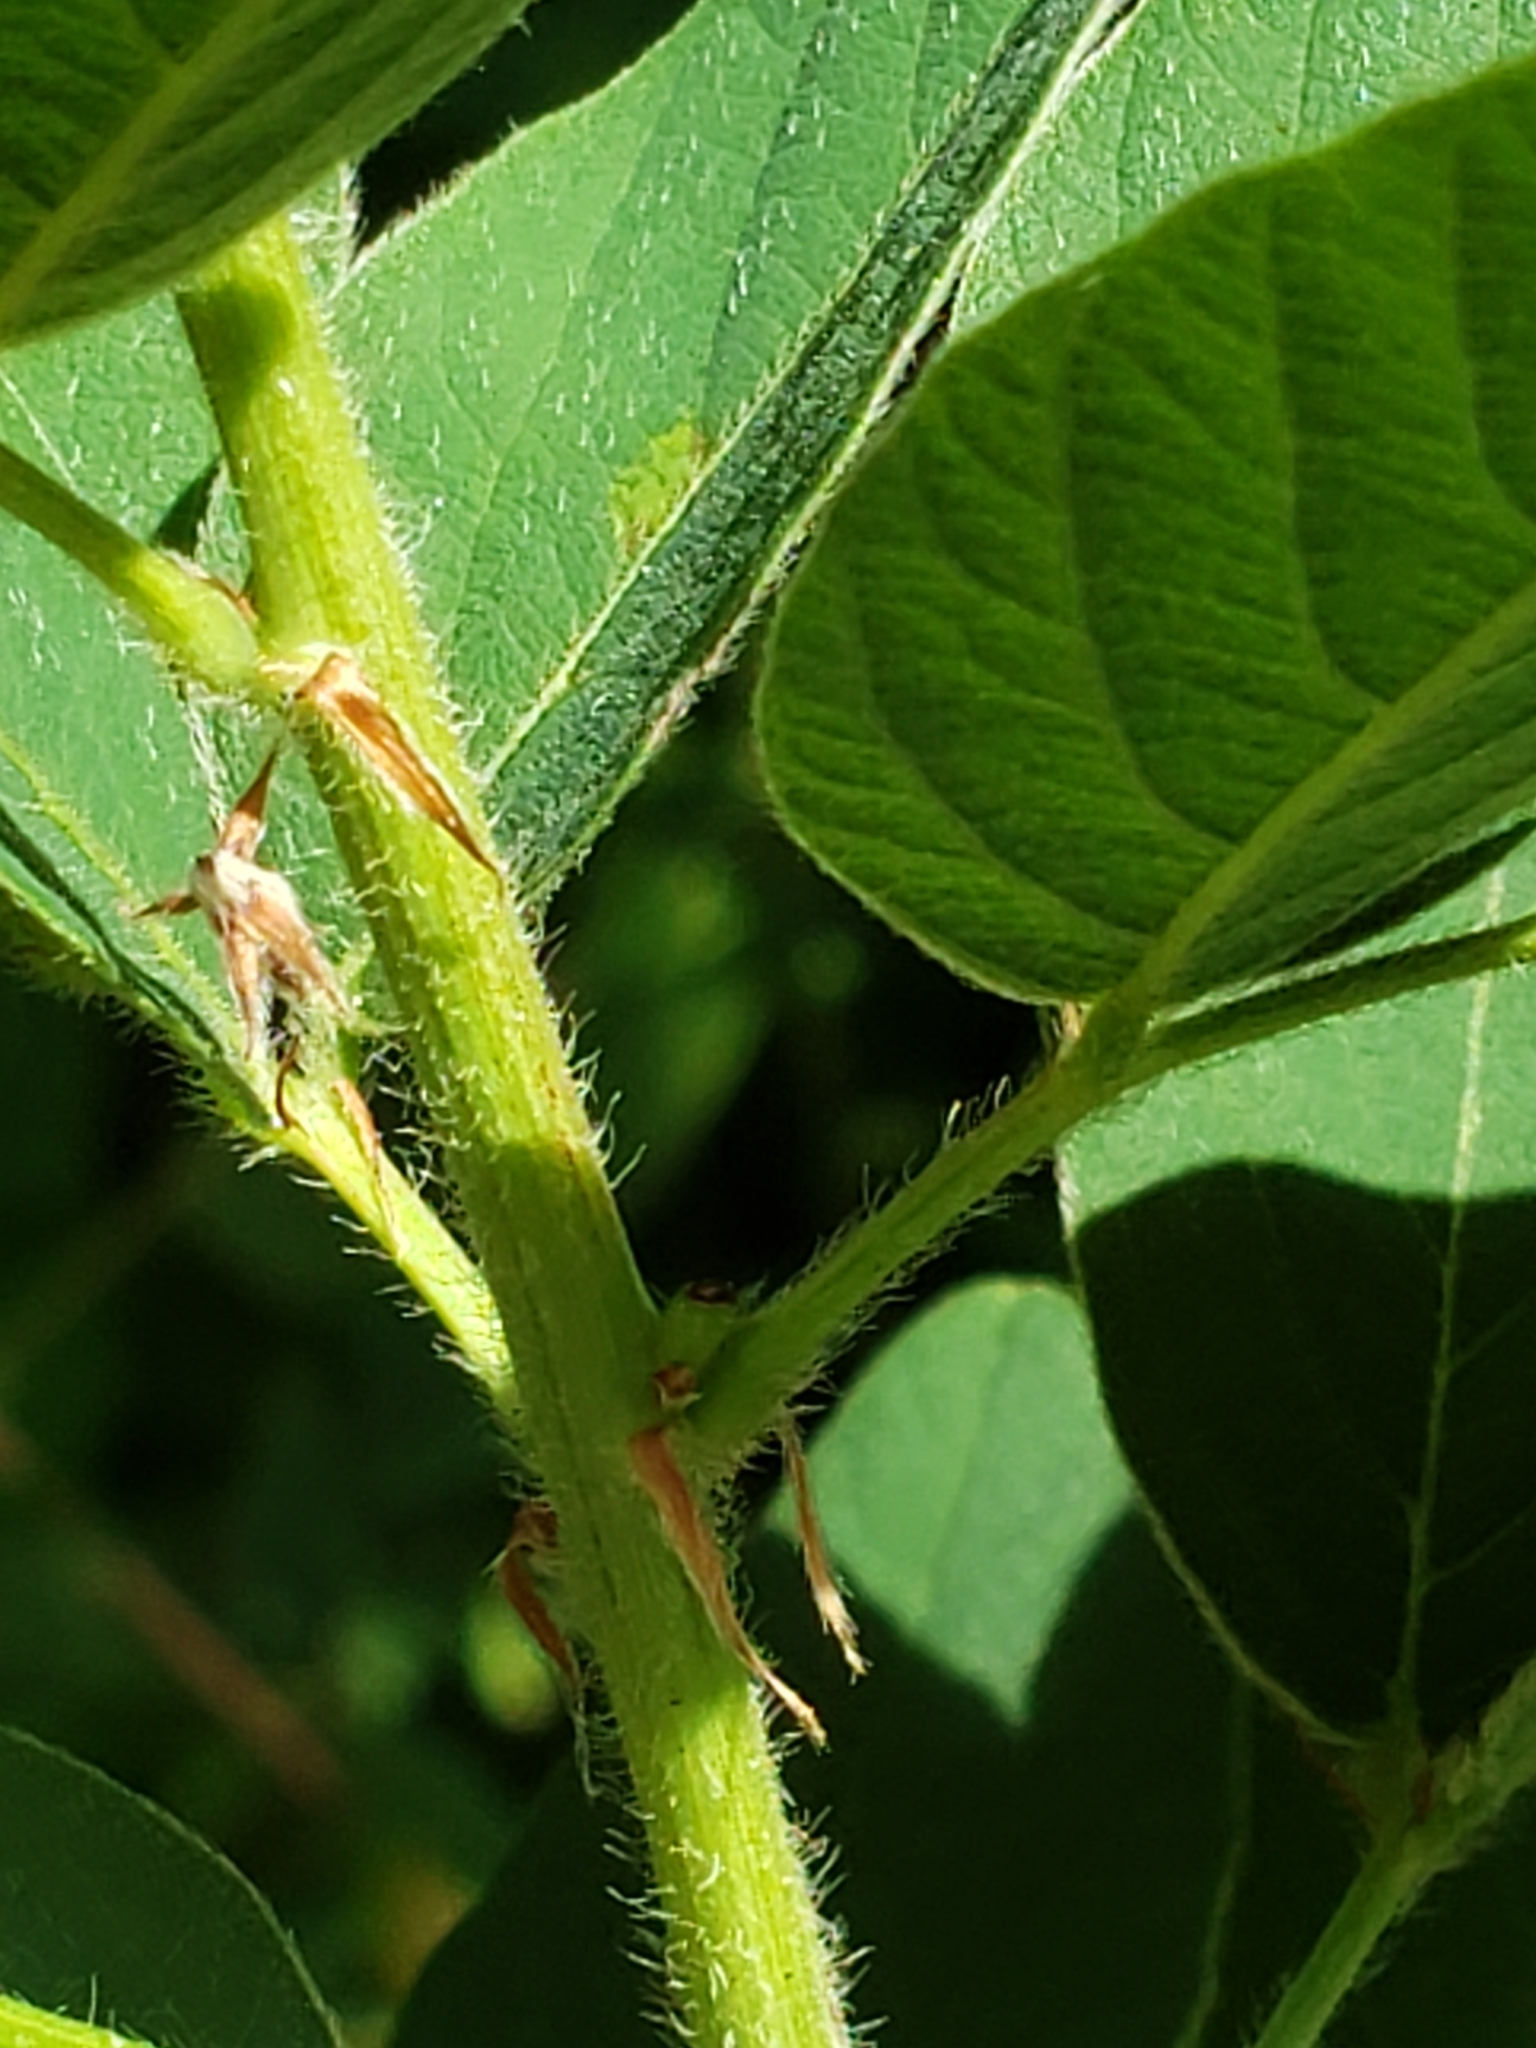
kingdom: Plantae
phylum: Tracheophyta
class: Magnoliopsida
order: Fabales
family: Fabaceae
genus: Desmodium
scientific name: Desmodium canadense
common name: Canada tick-trefoil
